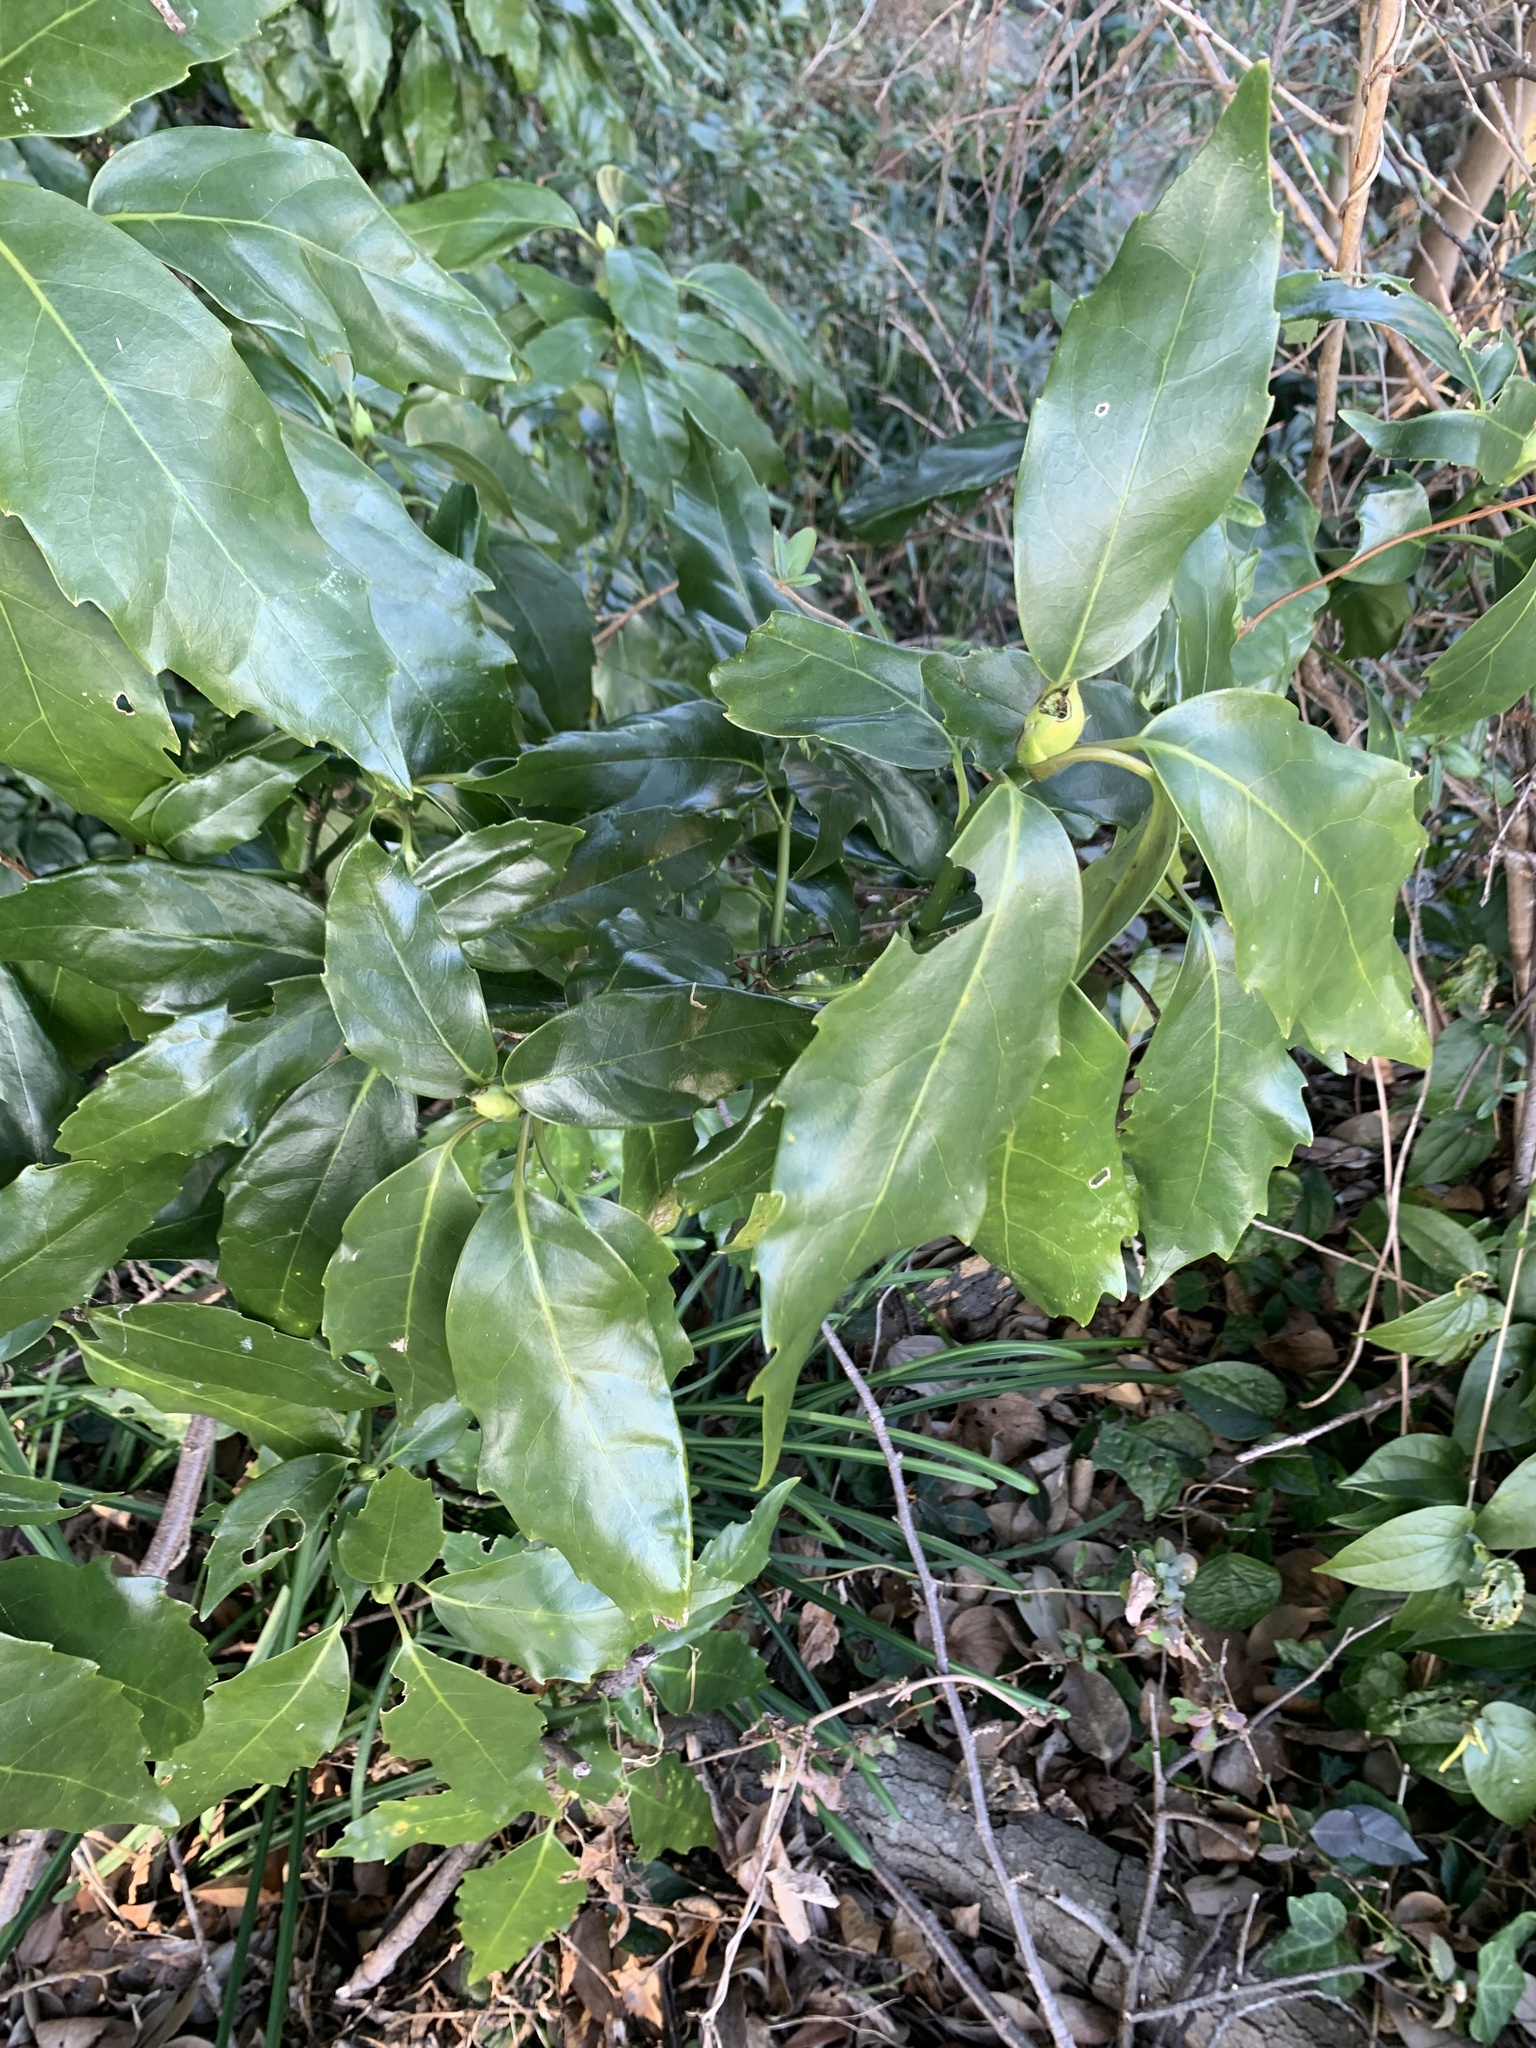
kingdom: Plantae
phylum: Tracheophyta
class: Magnoliopsida
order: Garryales
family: Garryaceae
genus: Aucuba
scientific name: Aucuba japonica
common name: Spotted-laurel
